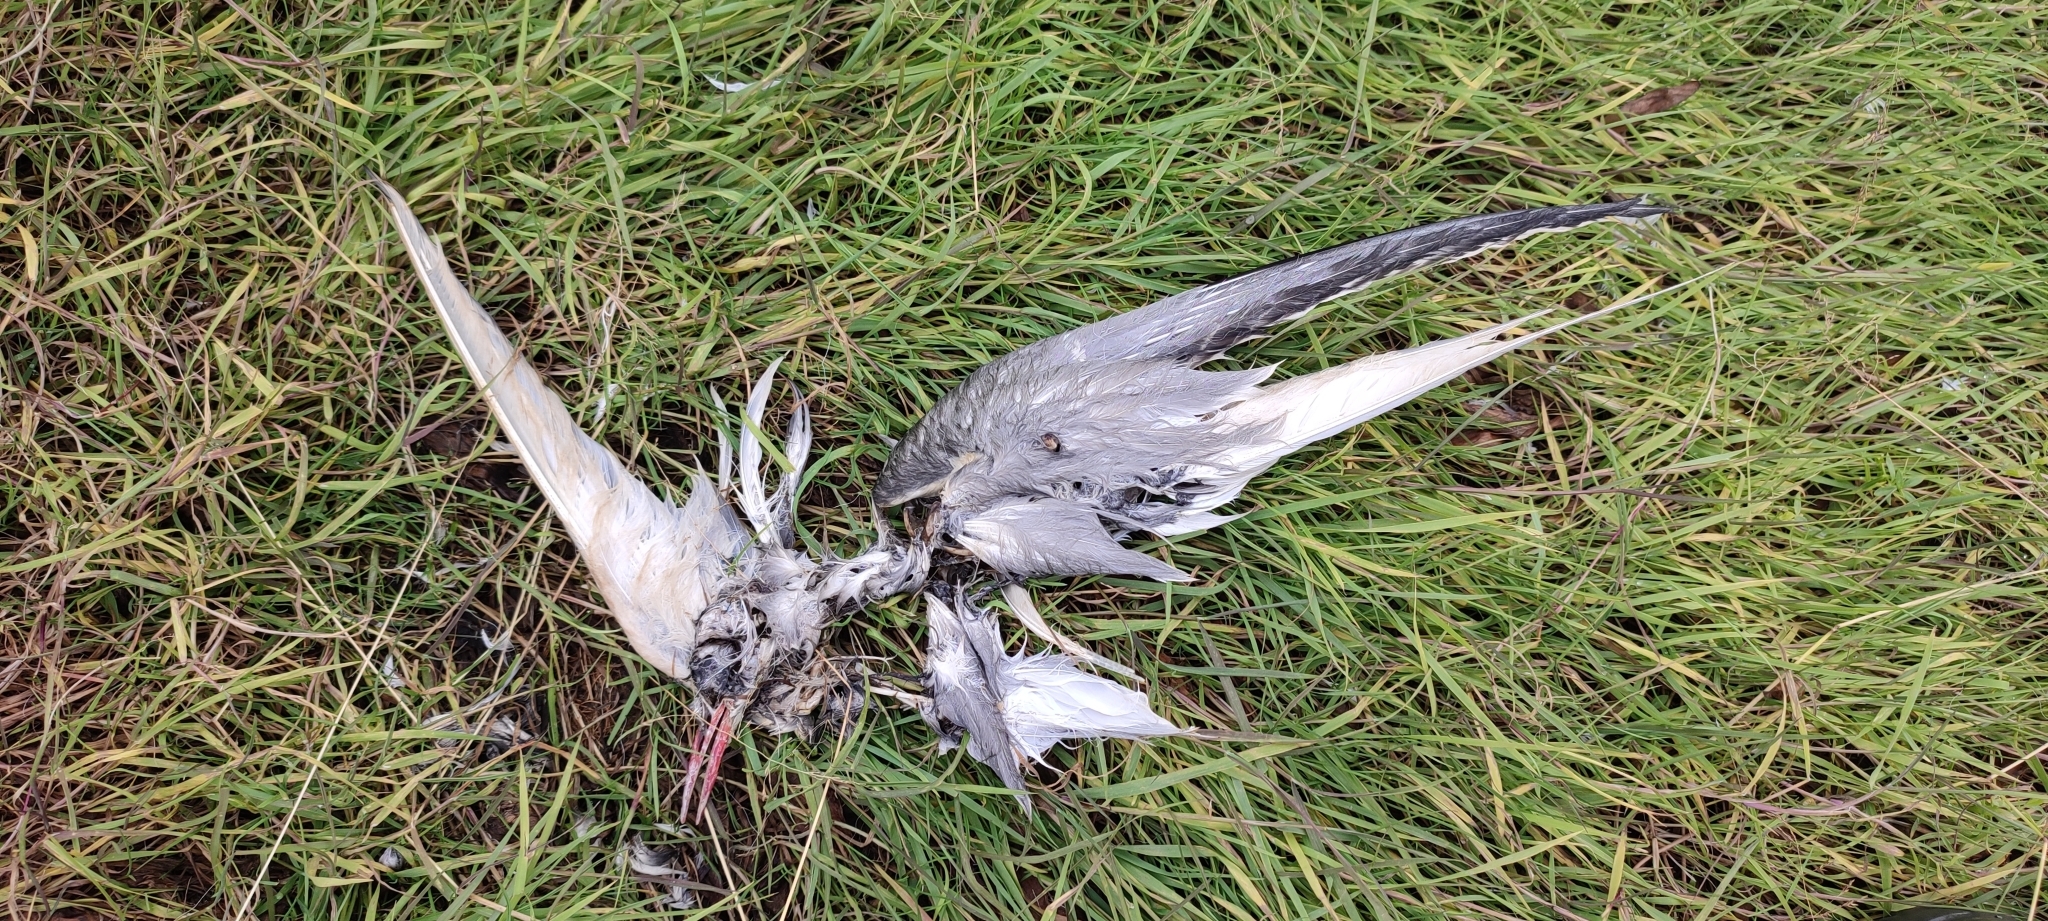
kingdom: Animalia
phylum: Chordata
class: Aves
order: Charadriiformes
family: Laridae
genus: Sterna
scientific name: Sterna paradisaea
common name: Arctic tern
